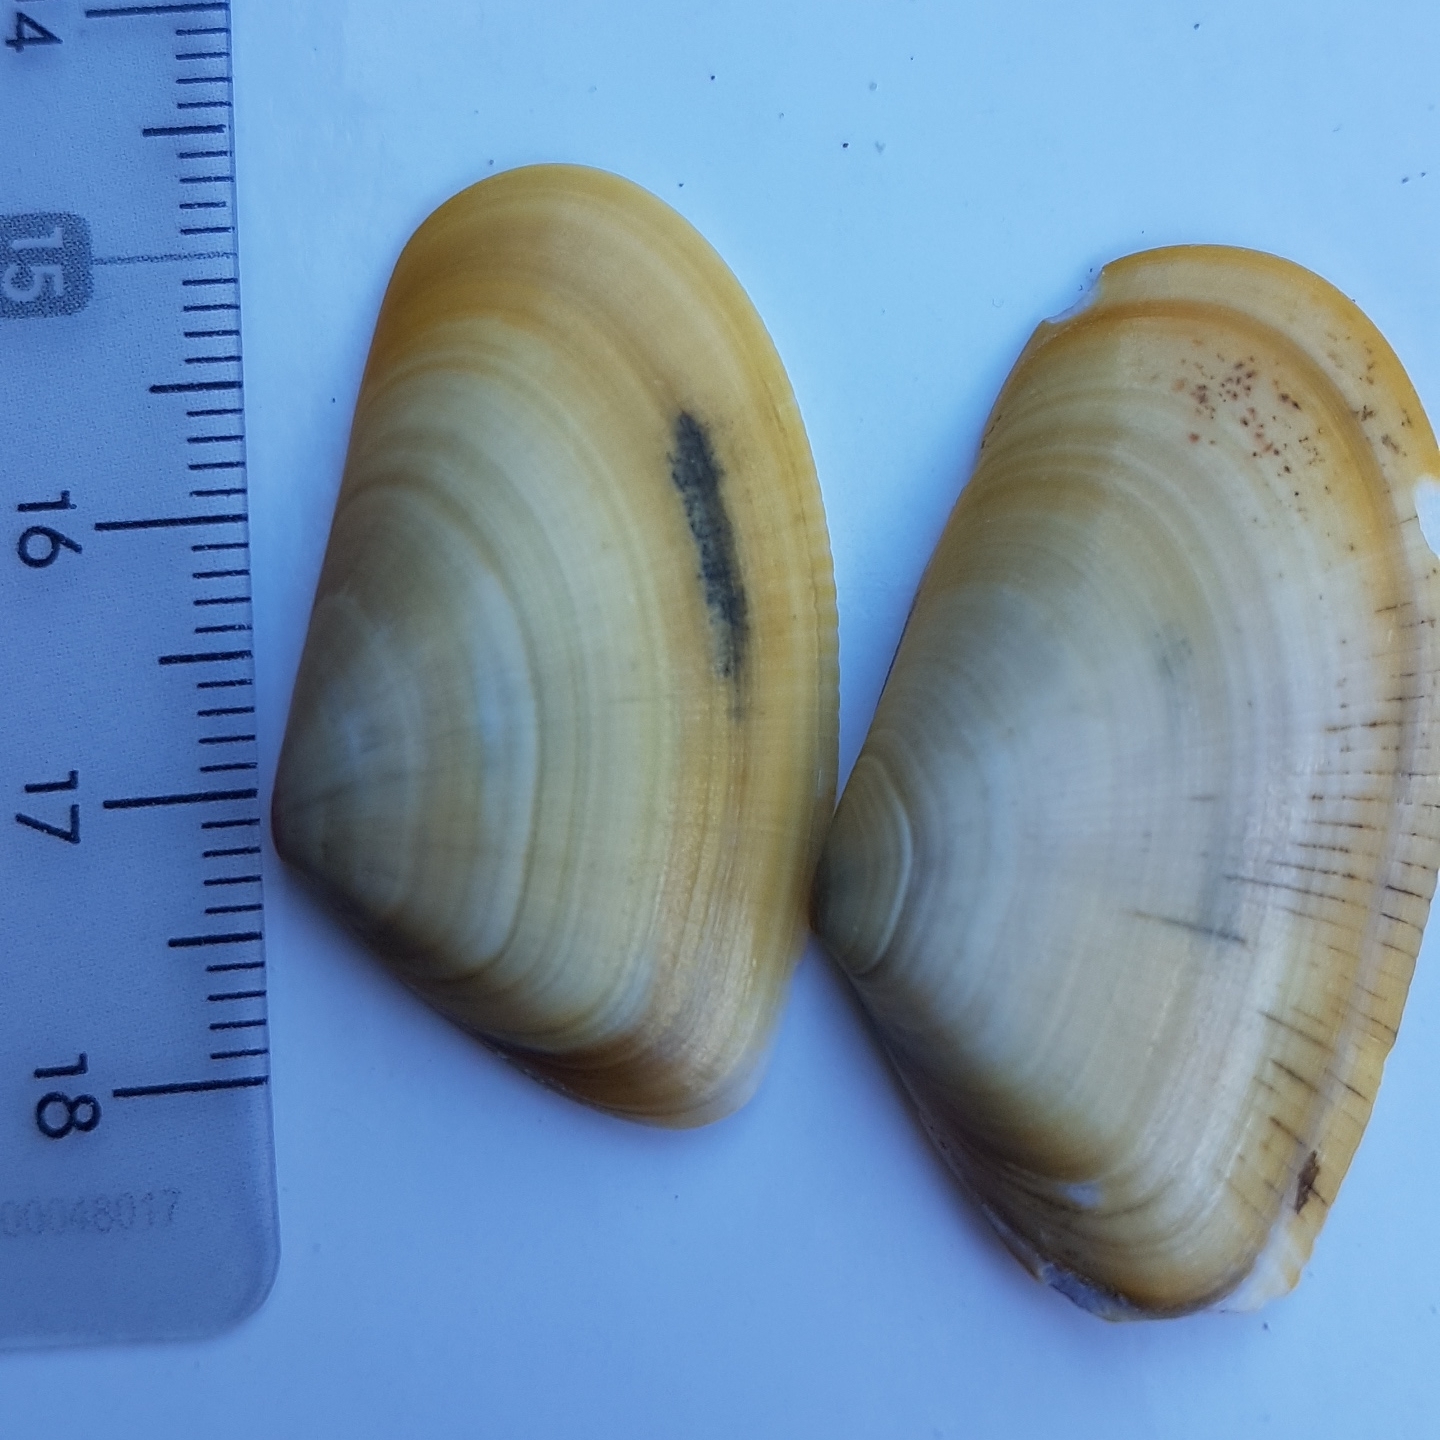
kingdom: Animalia
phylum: Mollusca
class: Bivalvia
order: Cardiida
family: Donacidae
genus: Donax
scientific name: Donax trunculus
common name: Truncate donax
